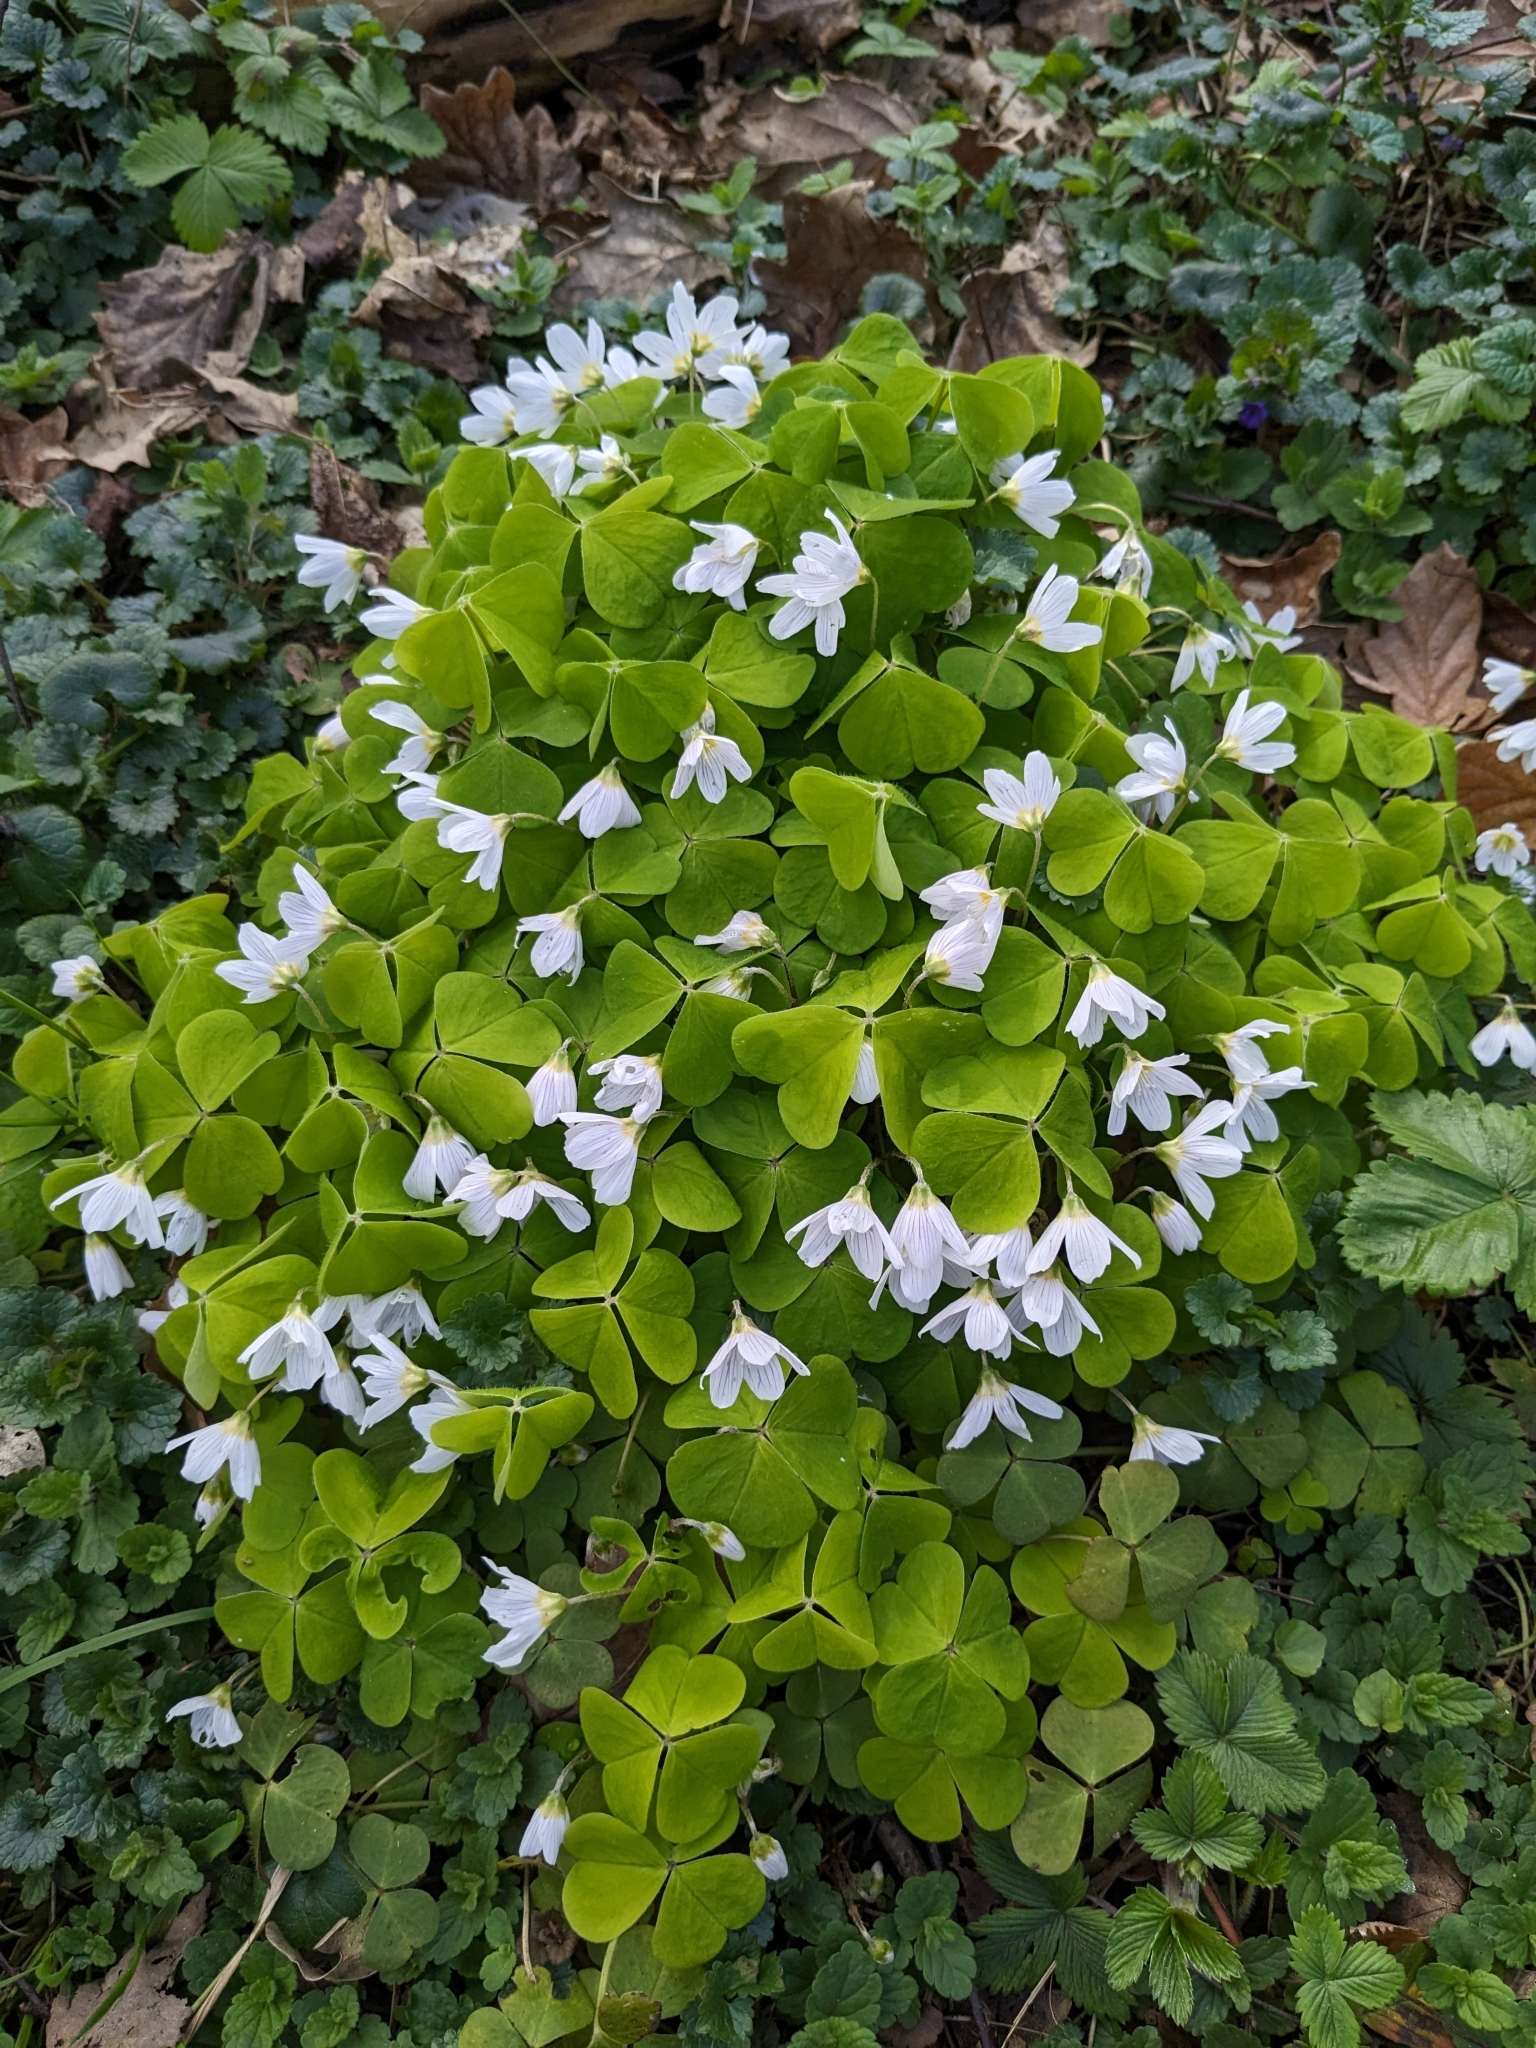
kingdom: Plantae
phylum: Tracheophyta
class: Magnoliopsida
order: Oxalidales
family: Oxalidaceae
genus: Oxalis
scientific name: Oxalis acetosella
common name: Wood-sorrel
